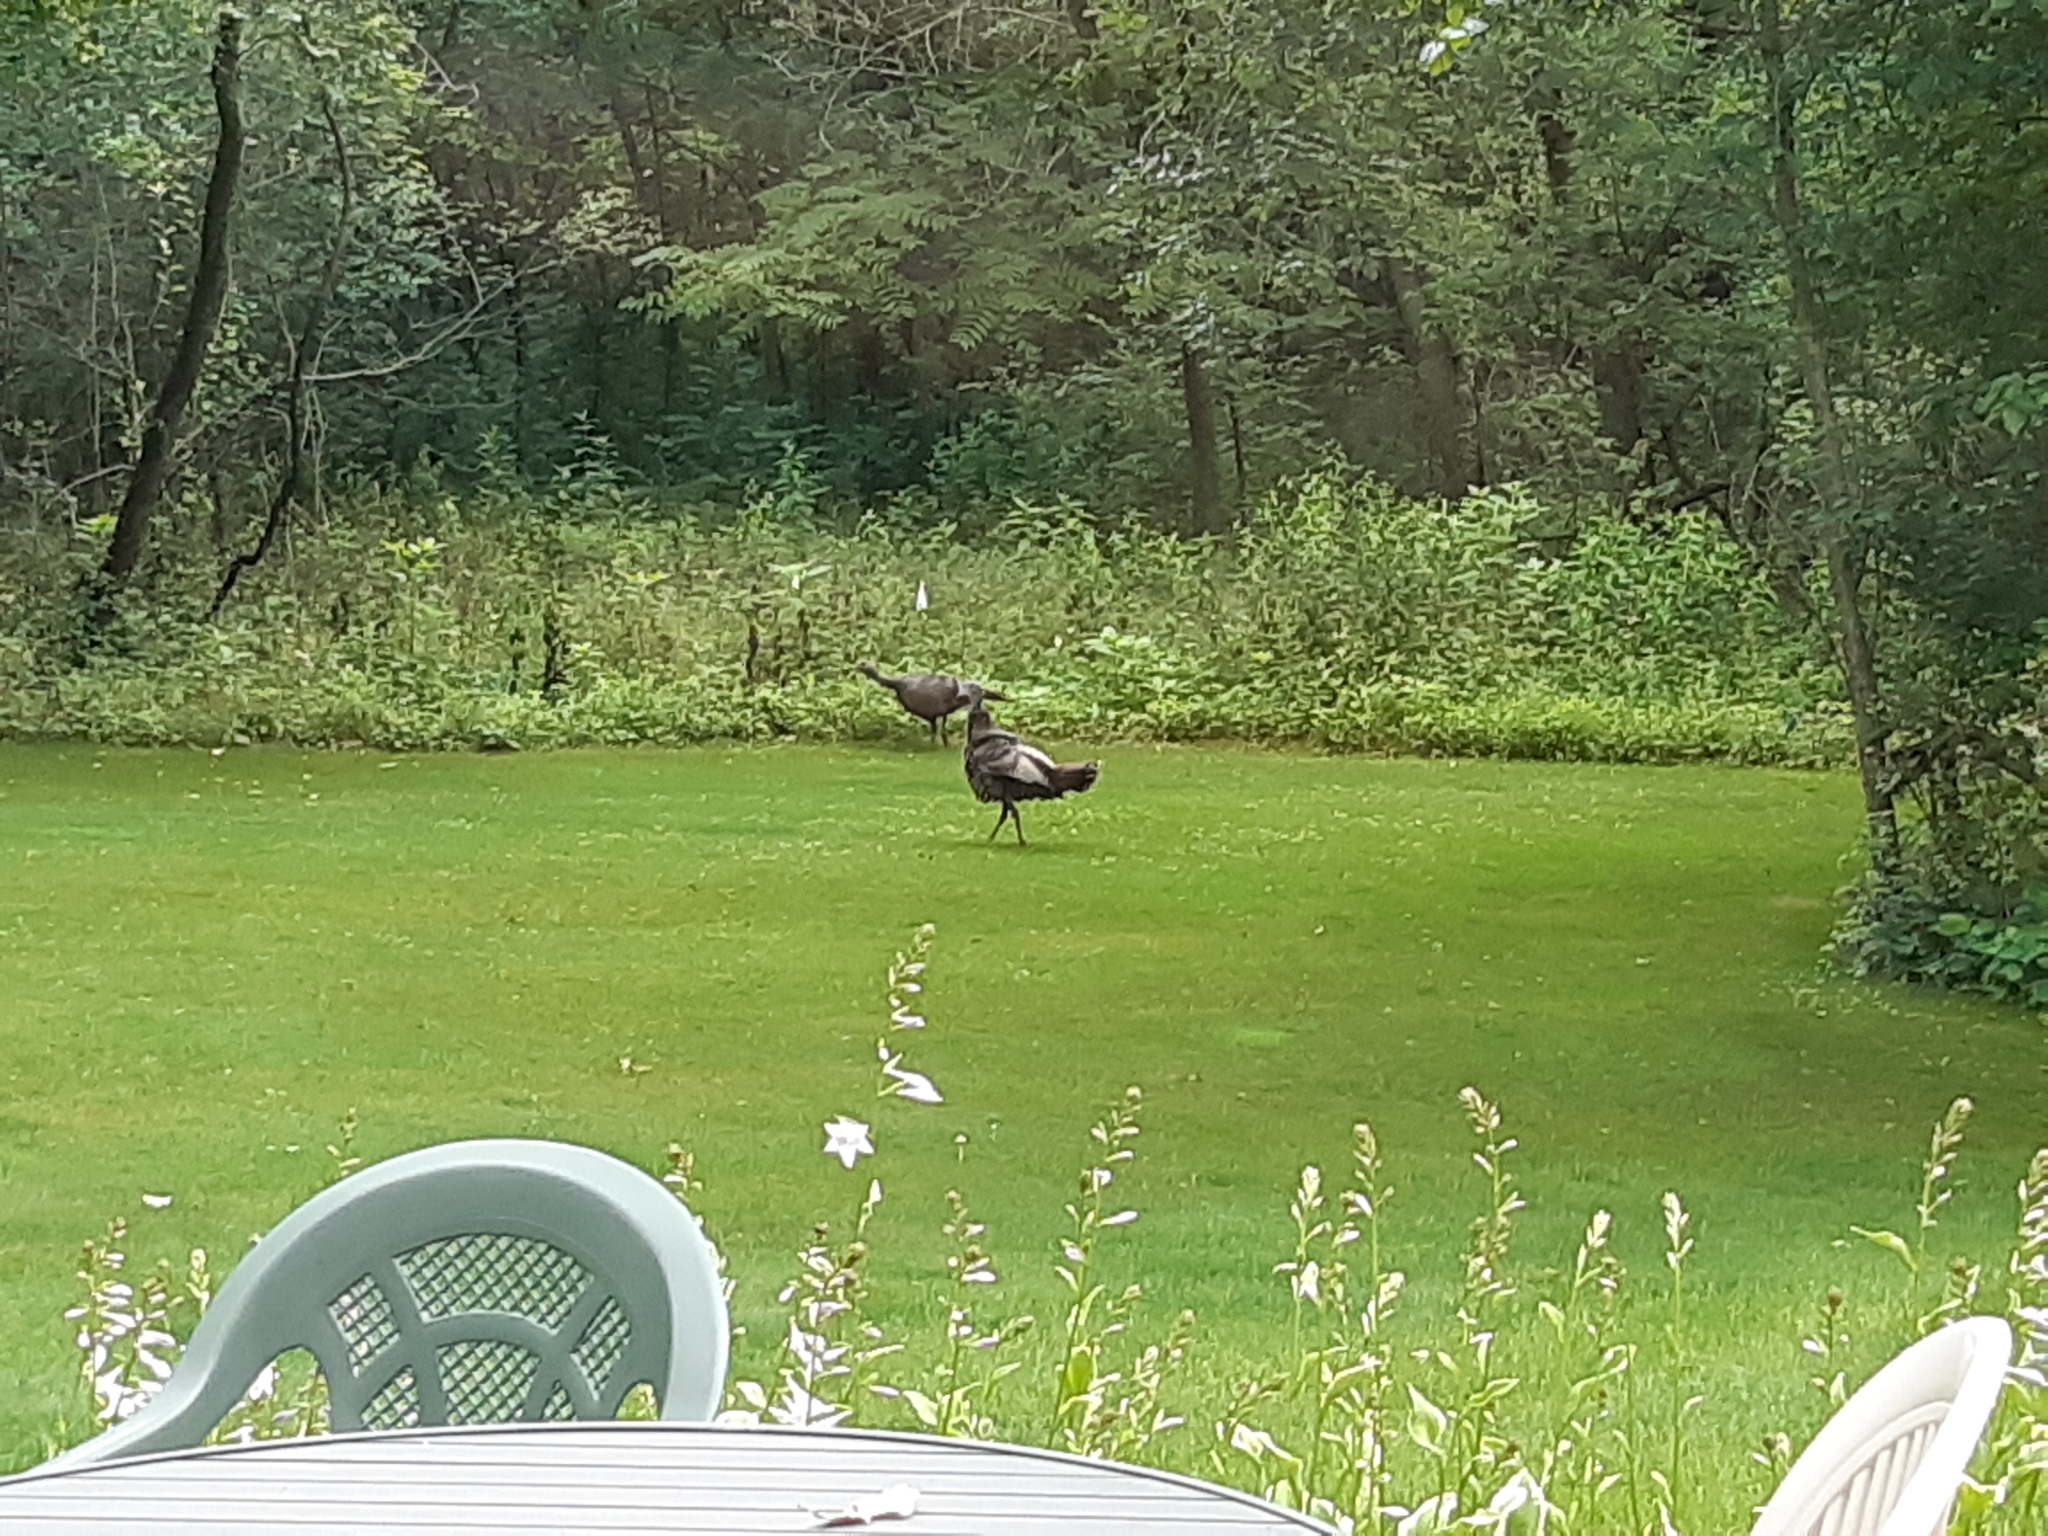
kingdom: Animalia
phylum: Chordata
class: Aves
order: Galliformes
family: Phasianidae
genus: Meleagris
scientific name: Meleagris gallopavo
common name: Wild turkey
